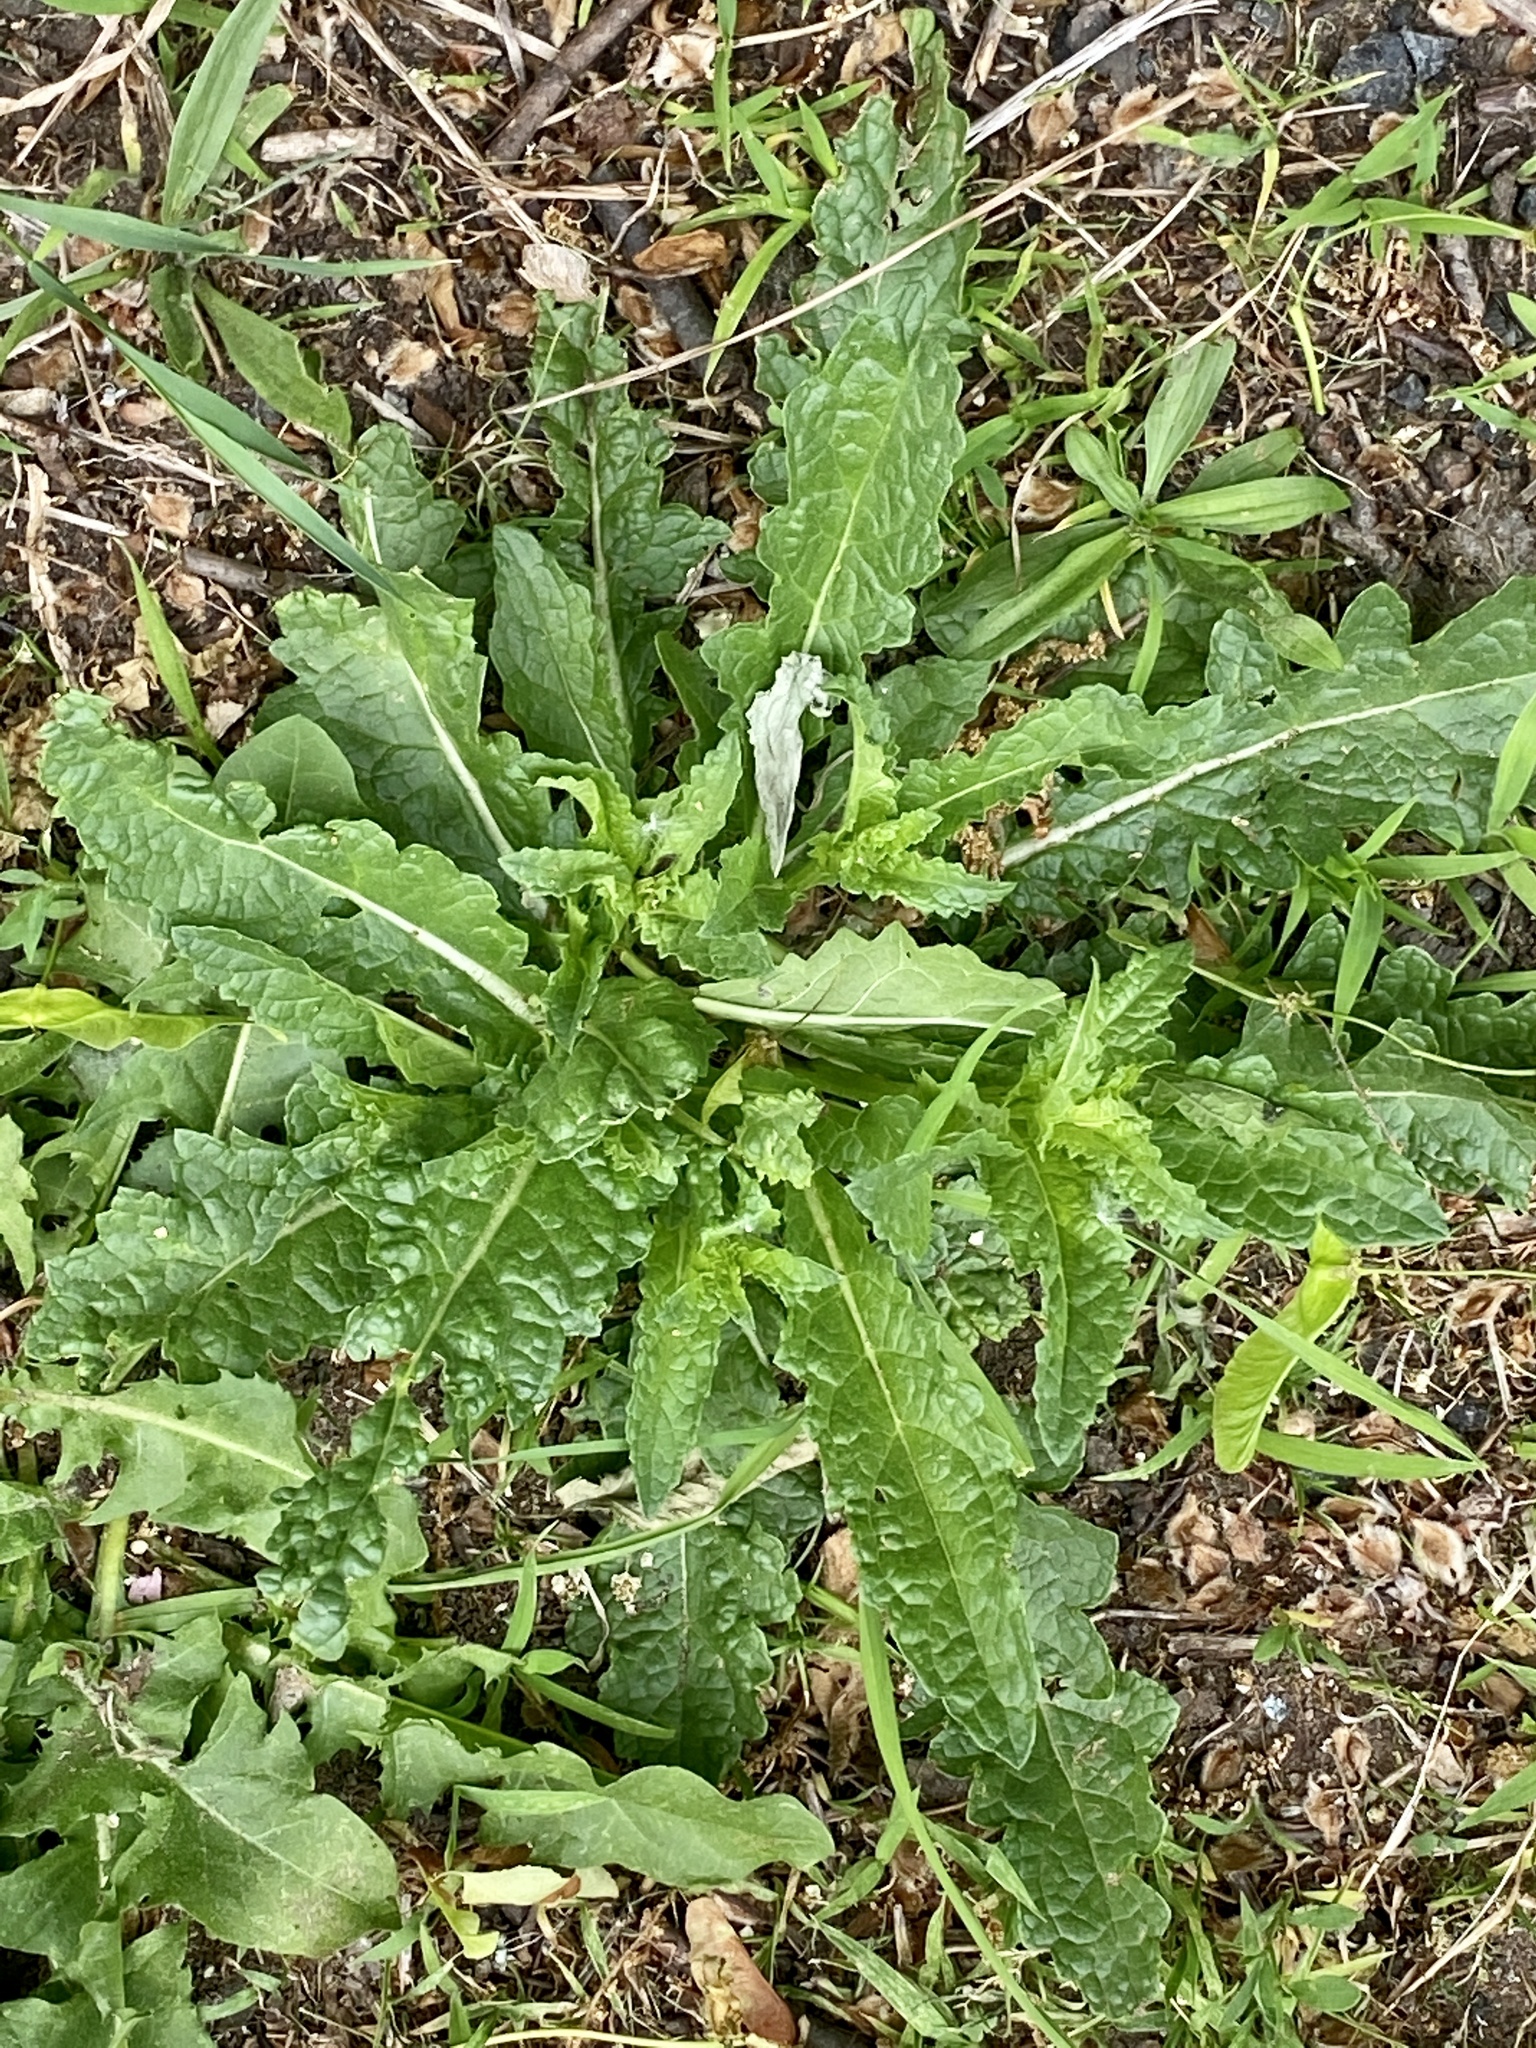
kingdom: Plantae
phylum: Tracheophyta
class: Magnoliopsida
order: Lamiales
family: Scrophulariaceae
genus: Verbascum
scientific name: Verbascum blattaria
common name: Moth mullein
